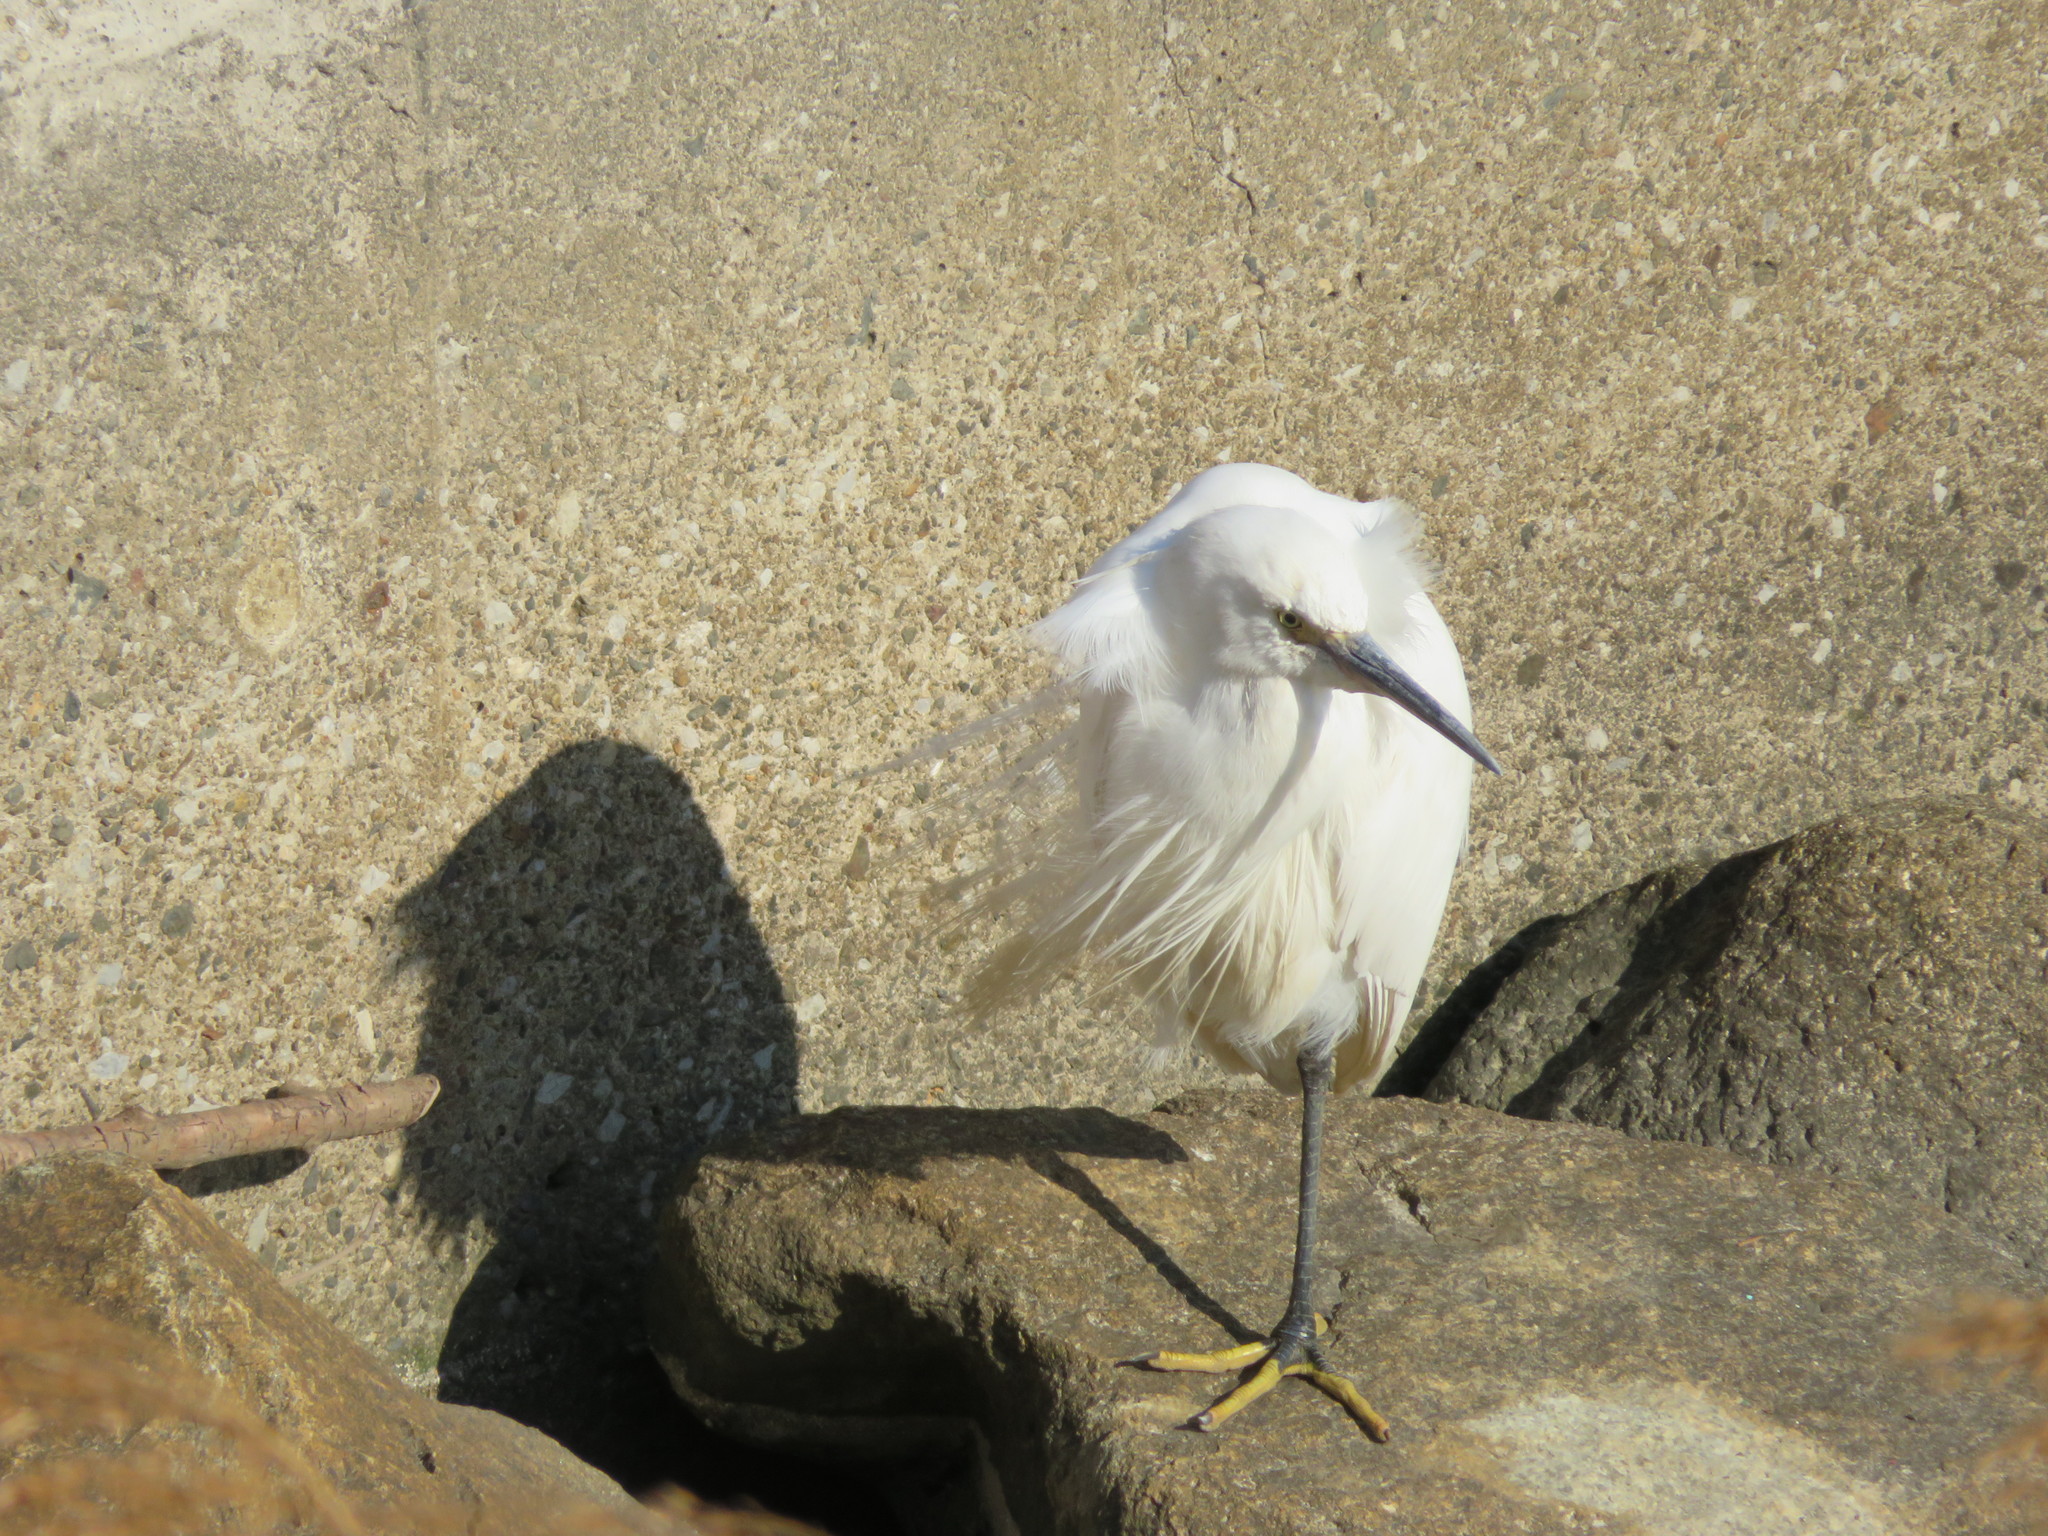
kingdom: Animalia
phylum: Chordata
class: Aves
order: Pelecaniformes
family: Ardeidae
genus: Egretta
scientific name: Egretta garzetta
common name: Little egret
